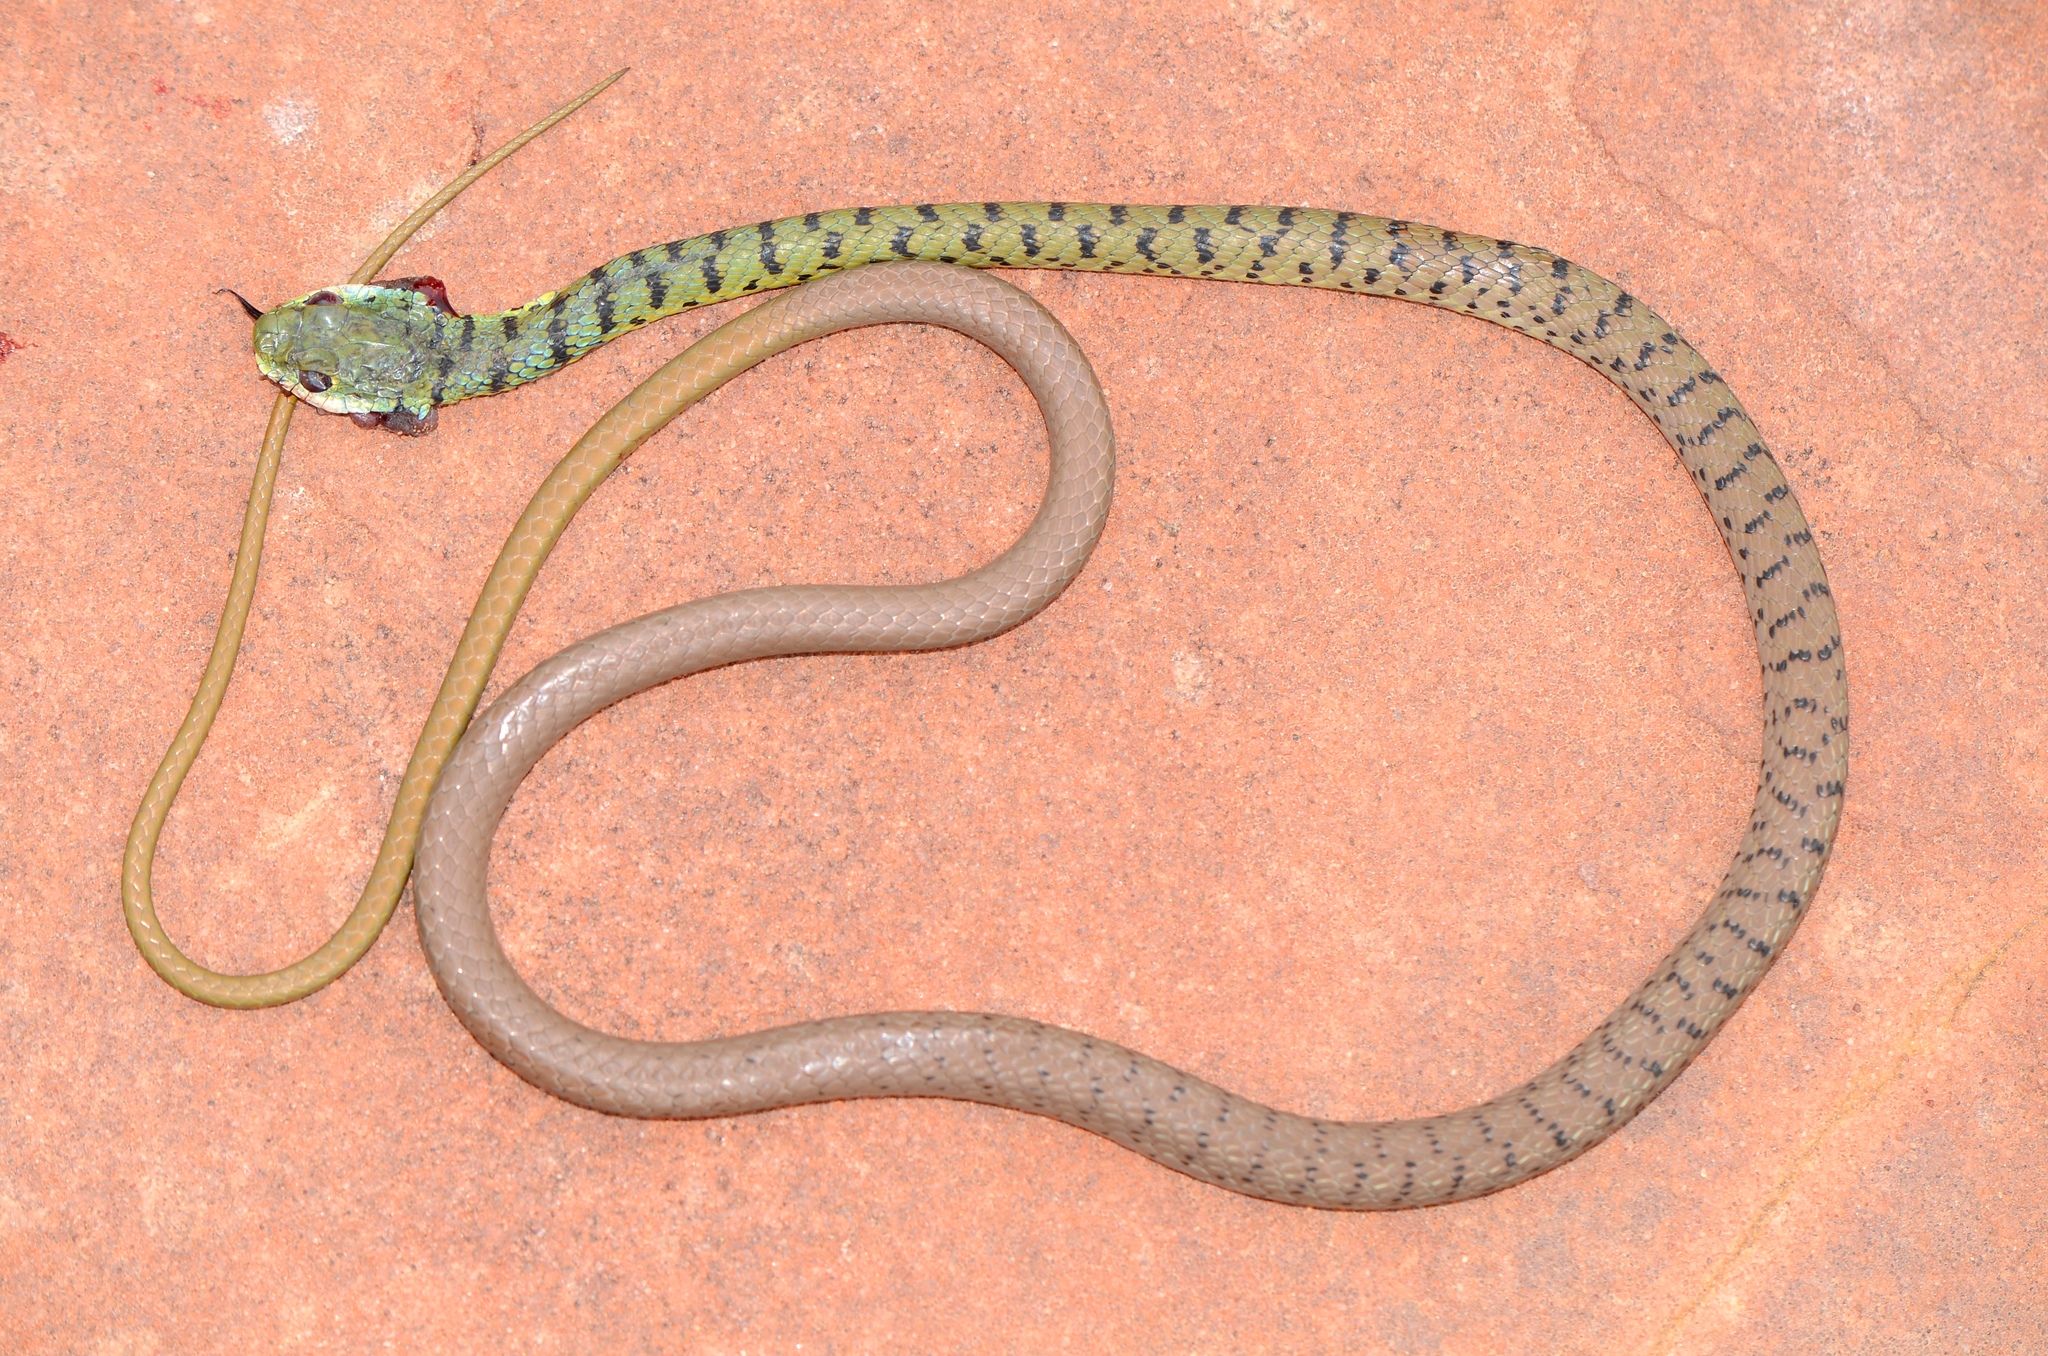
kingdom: Animalia
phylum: Chordata
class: Squamata
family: Colubridae
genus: Philothamnus
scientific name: Philothamnus semivariegatus
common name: Spotted bush snake
